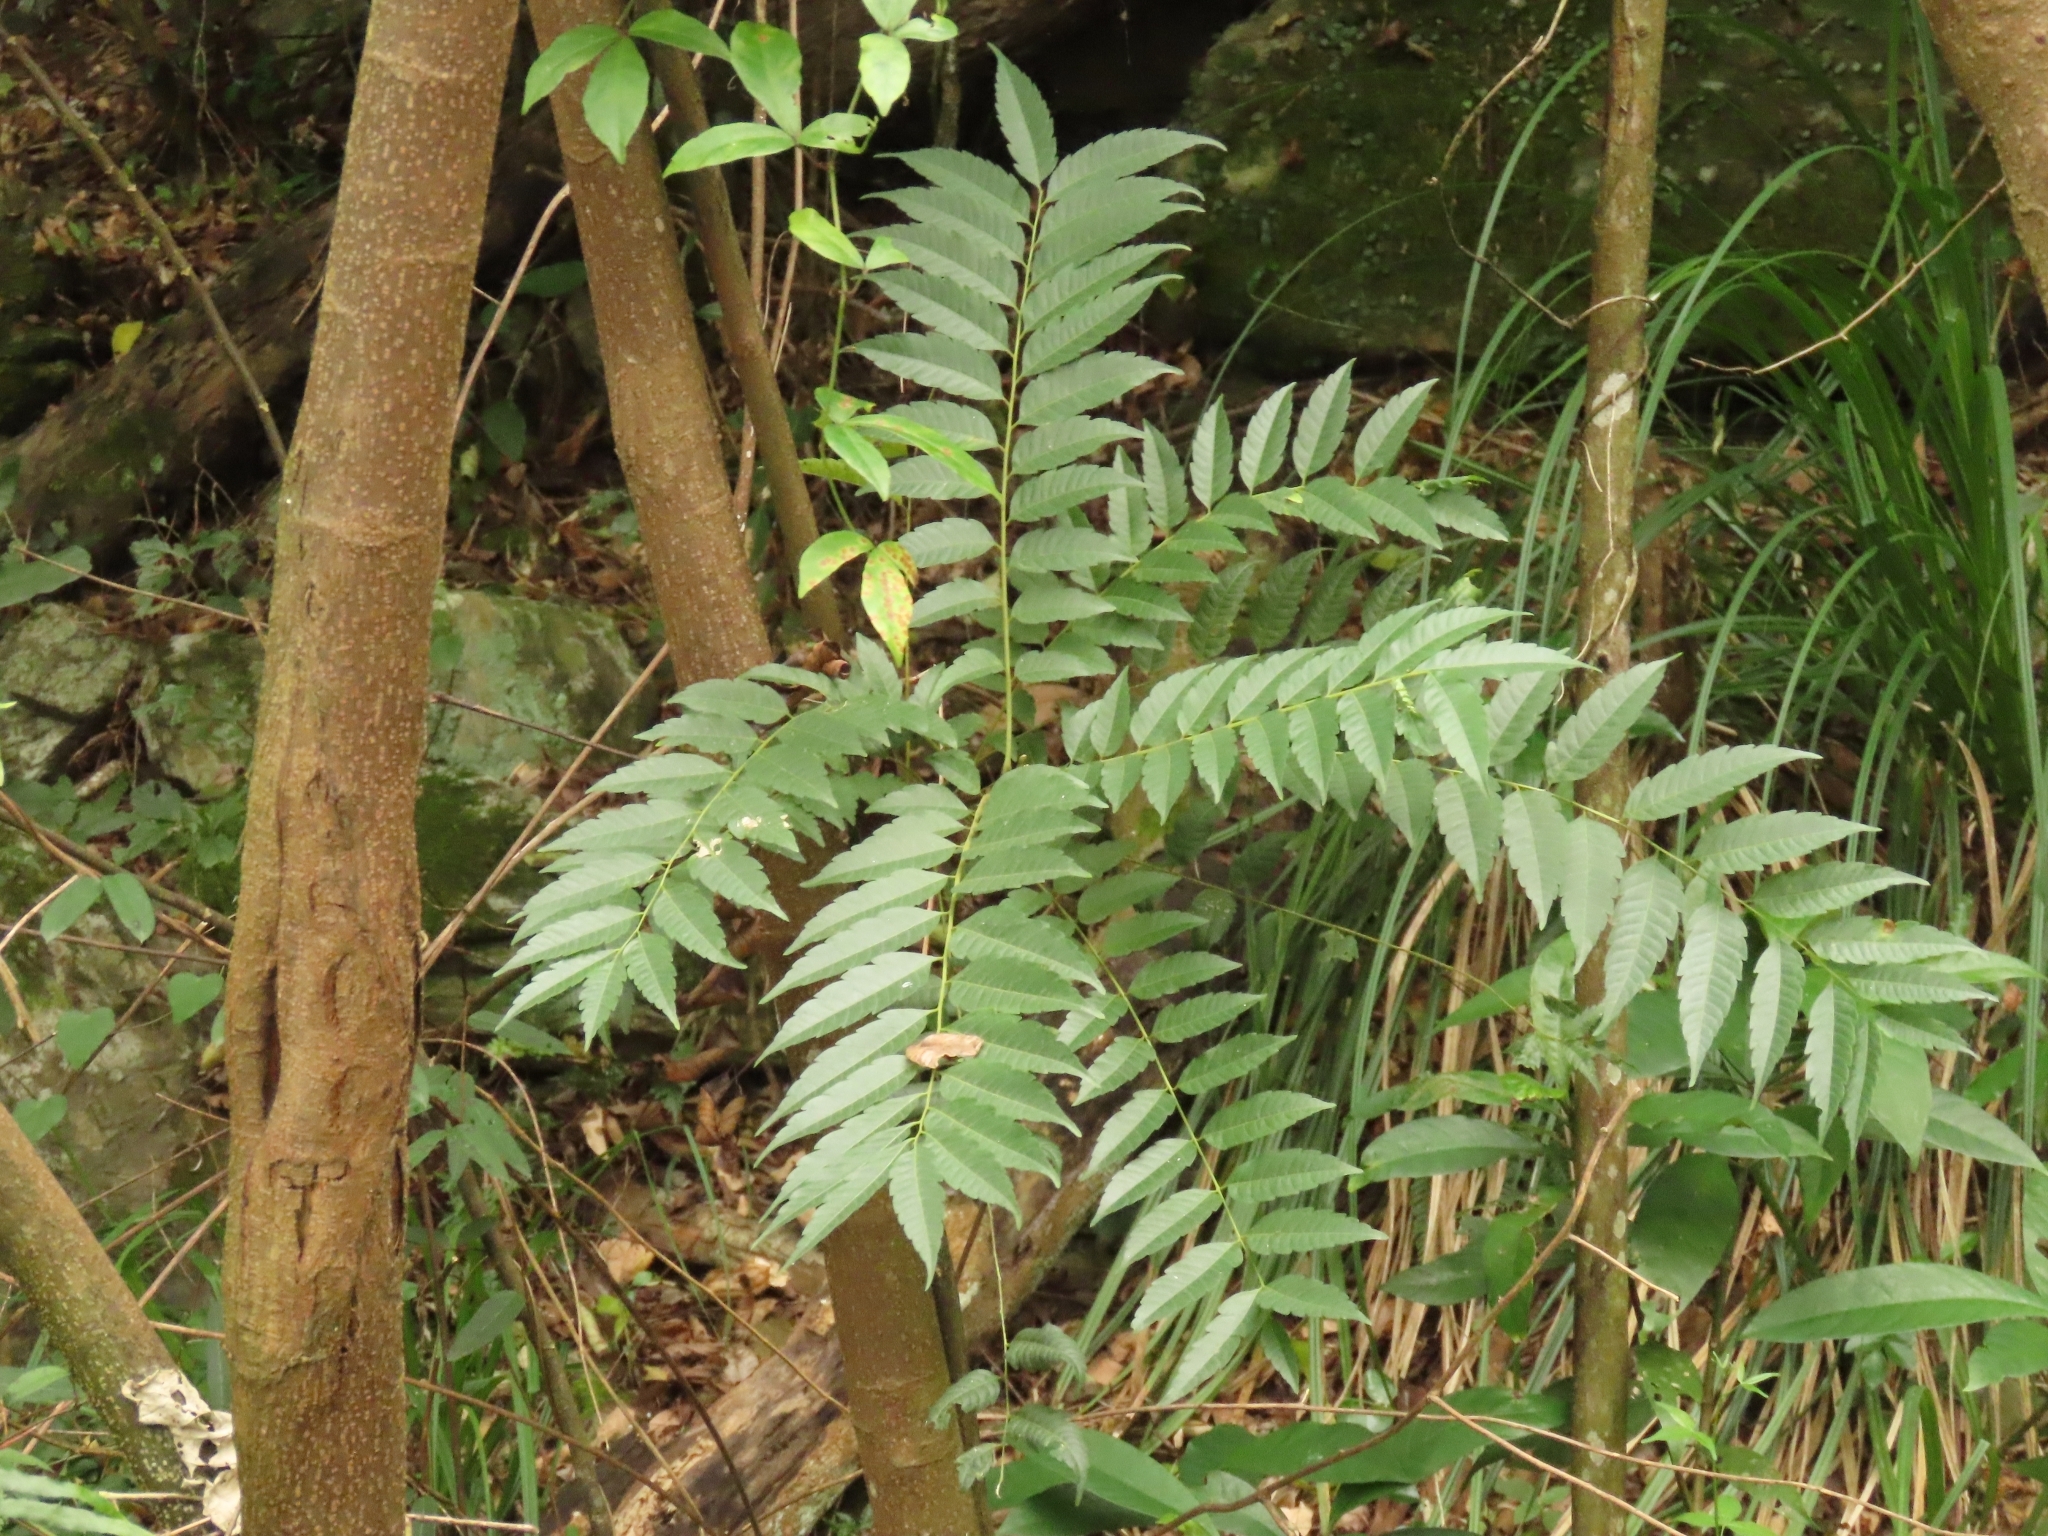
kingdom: Plantae
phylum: Tracheophyta
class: Magnoliopsida
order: Sapindales
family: Anacardiaceae
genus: Pistacia
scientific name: Pistacia chinensis
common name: Chinese pistache
